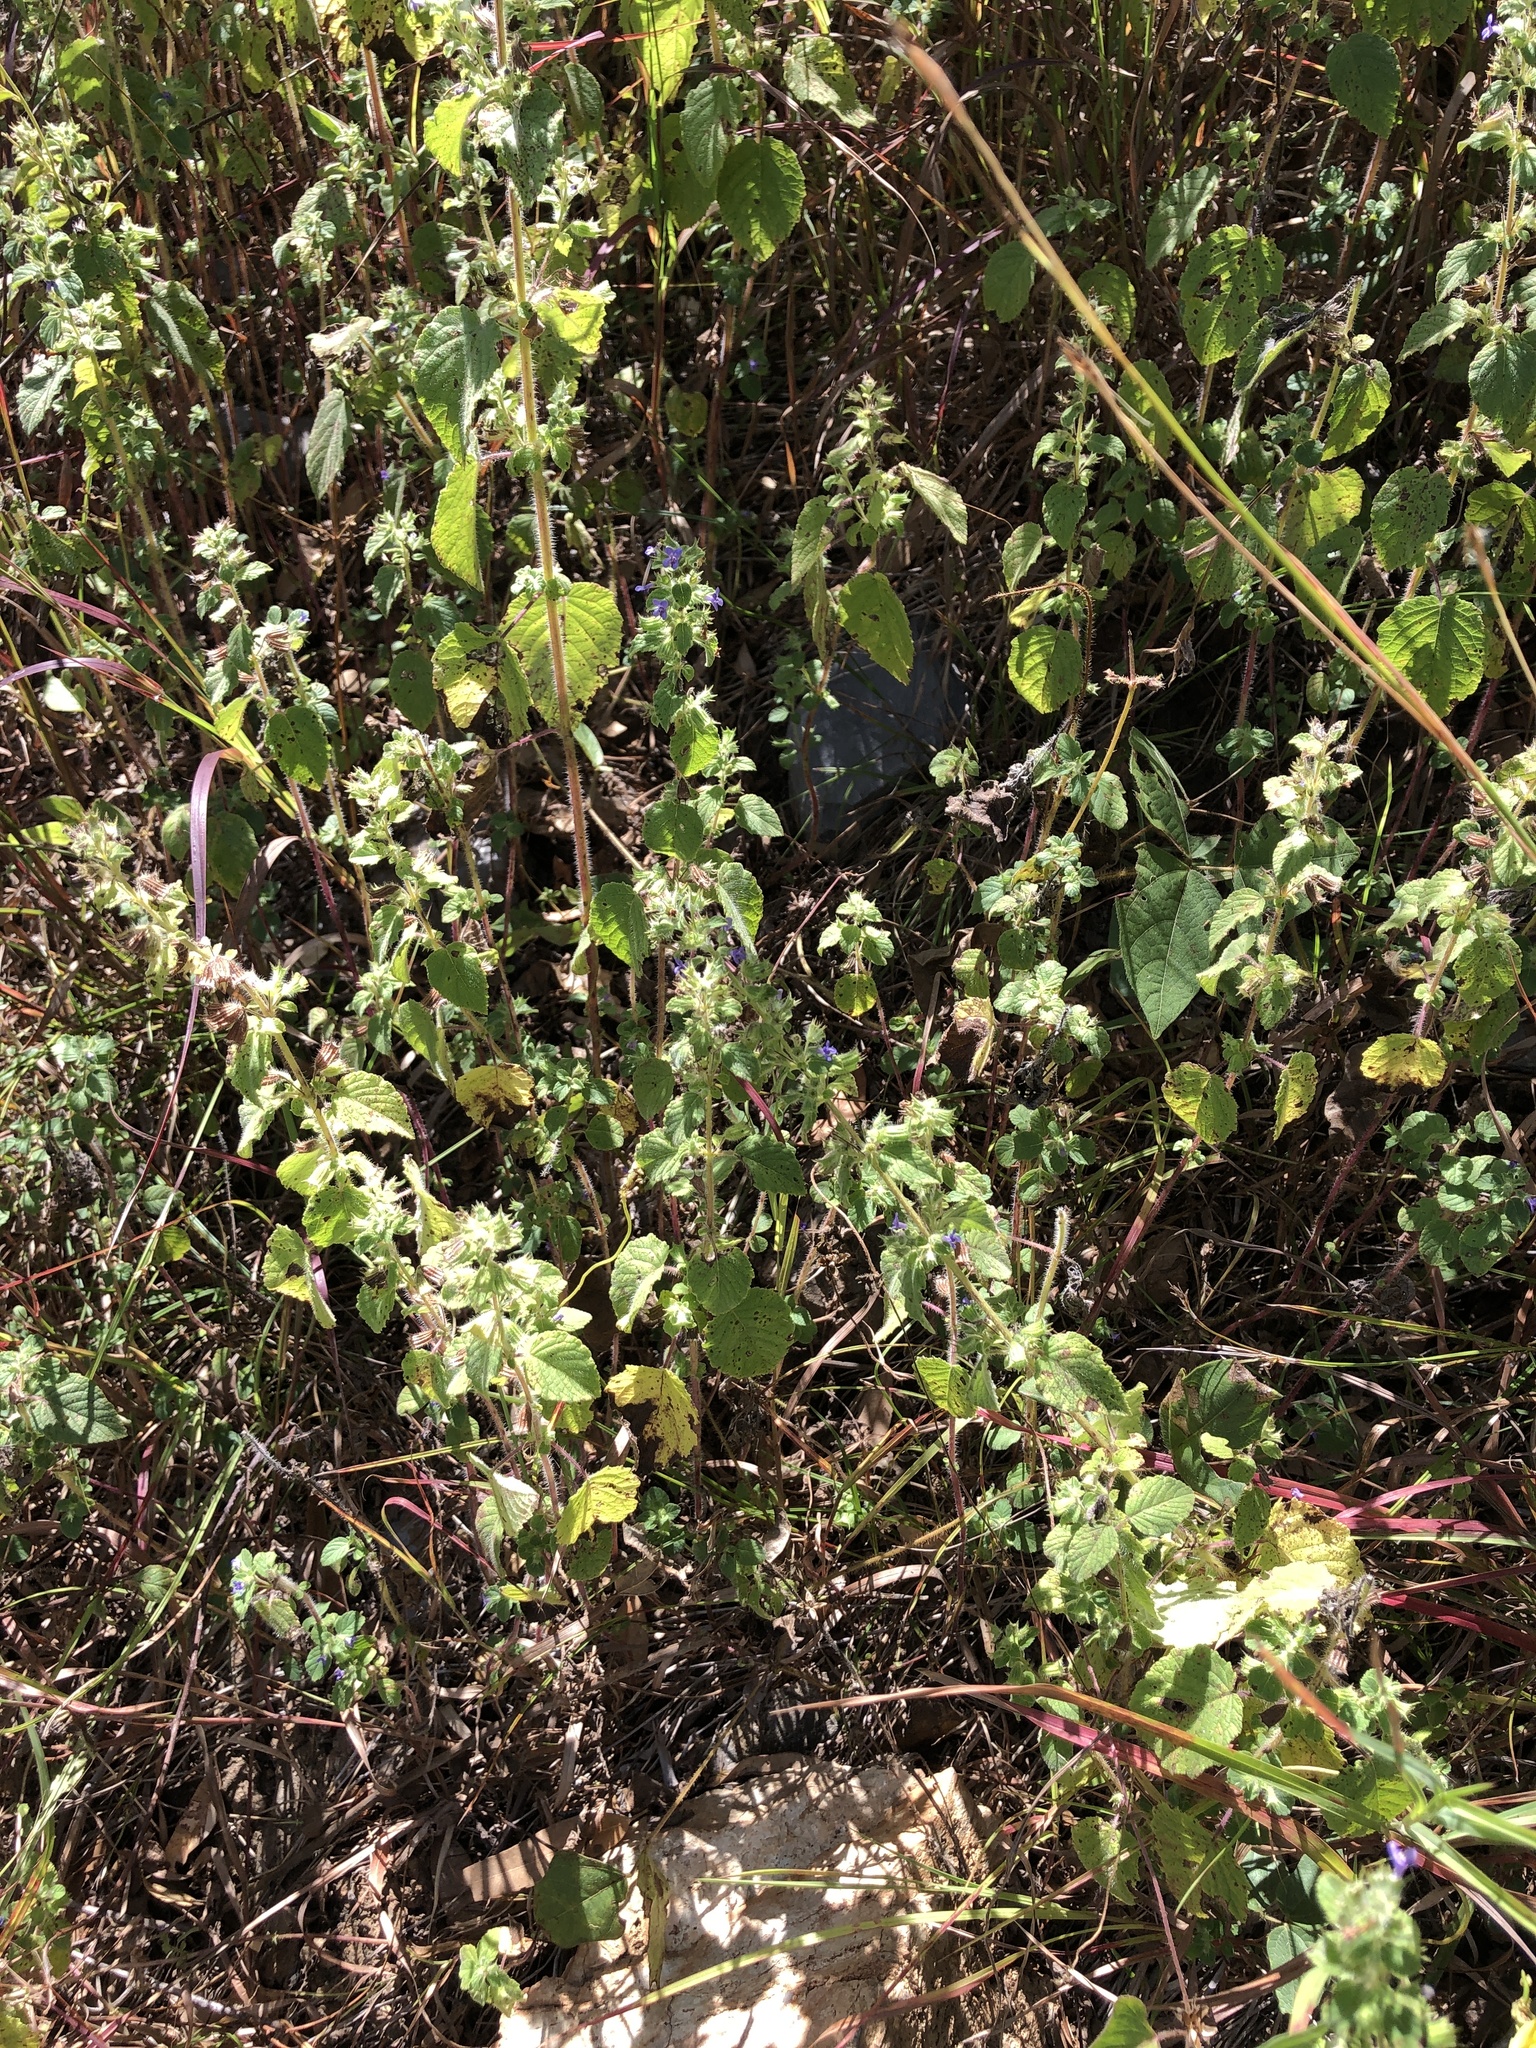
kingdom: Plantae
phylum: Tracheophyta
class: Magnoliopsida
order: Lamiales
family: Lamiaceae
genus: Mesosphaerum
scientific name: Mesosphaerum suaveolens
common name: Pignut
